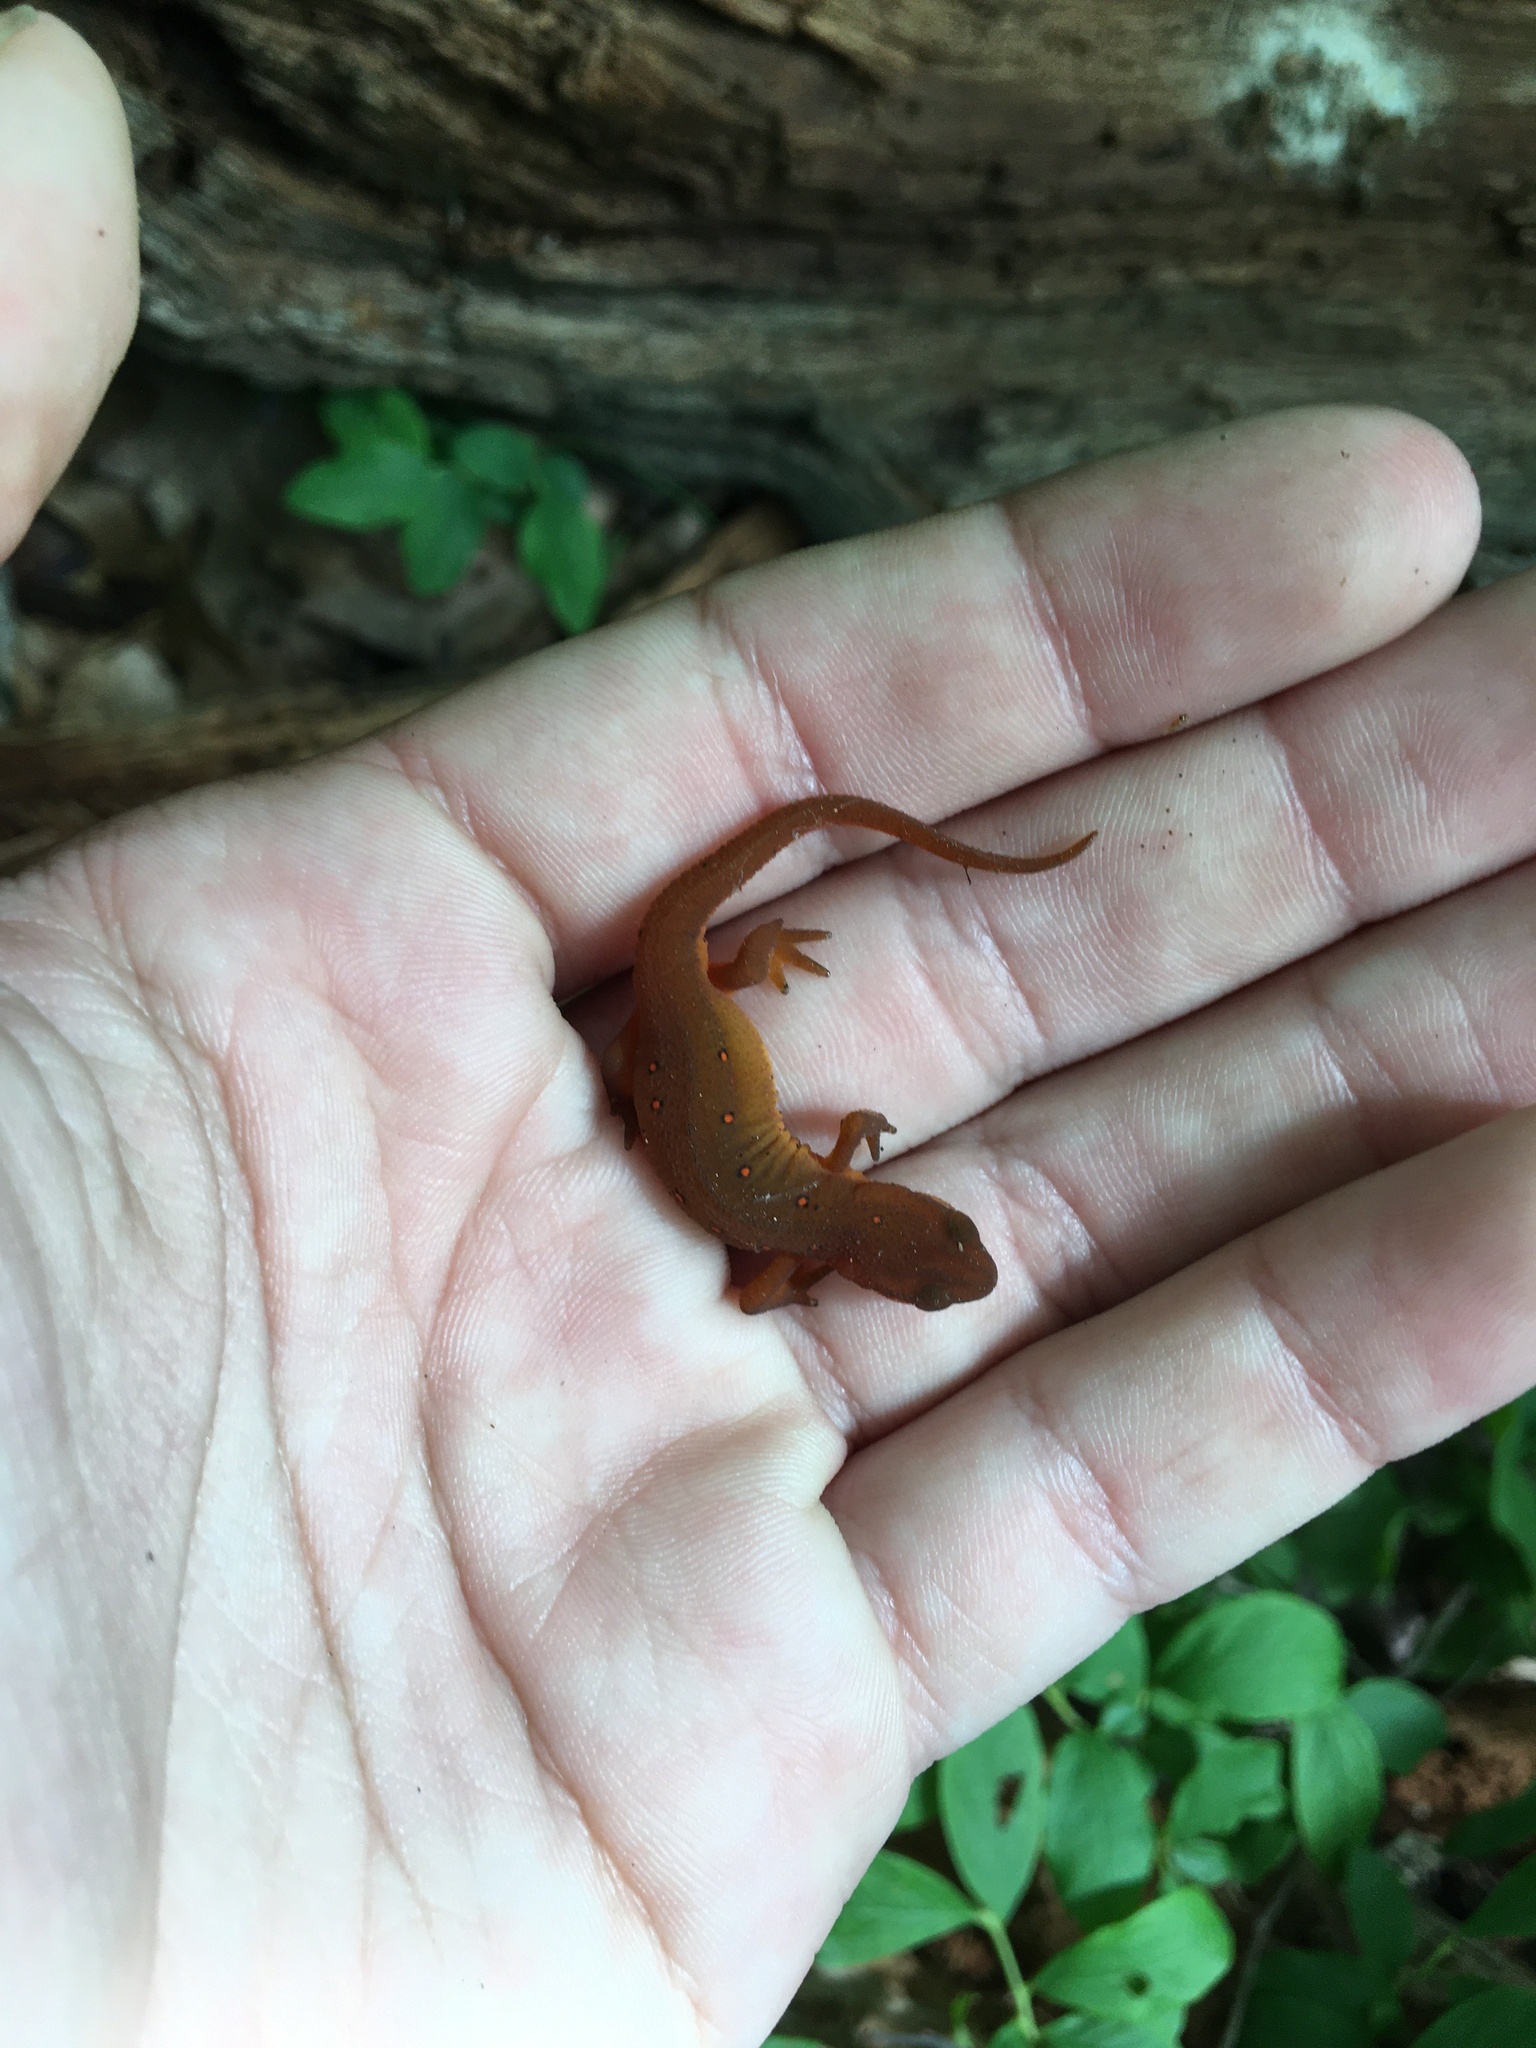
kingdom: Animalia
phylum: Chordata
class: Amphibia
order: Caudata
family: Salamandridae
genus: Notophthalmus
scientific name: Notophthalmus viridescens
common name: Eastern newt
